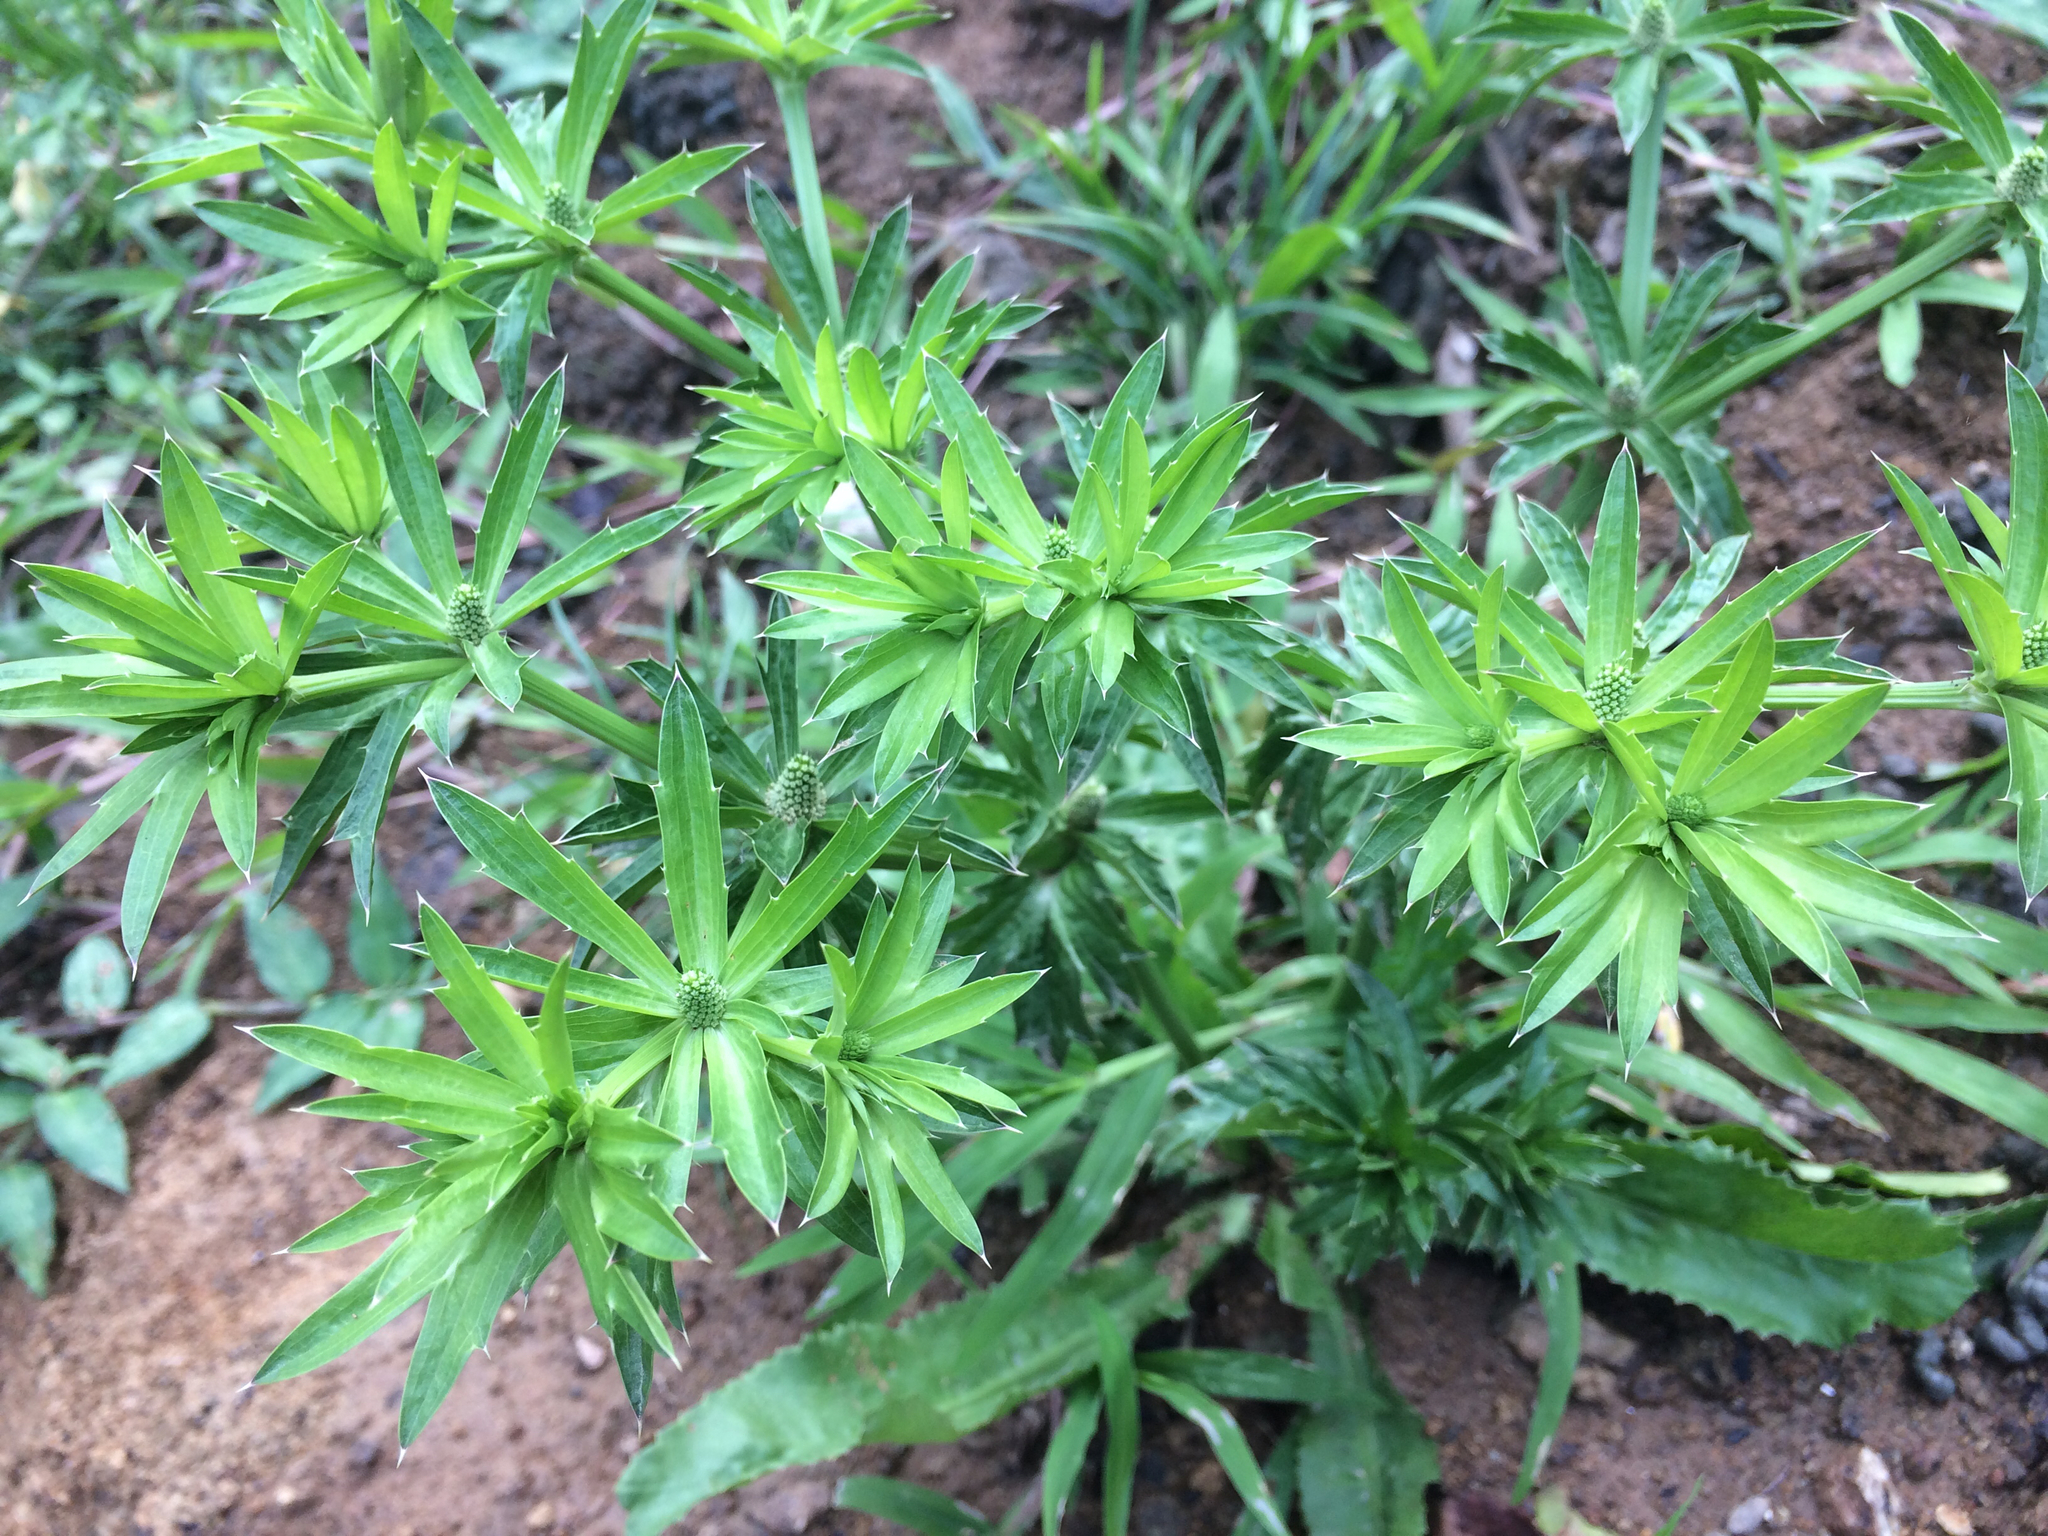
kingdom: Plantae
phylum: Tracheophyta
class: Magnoliopsida
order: Apiales
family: Apiaceae
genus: Eryngium
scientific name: Eryngium foetidum
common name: Fitweed
